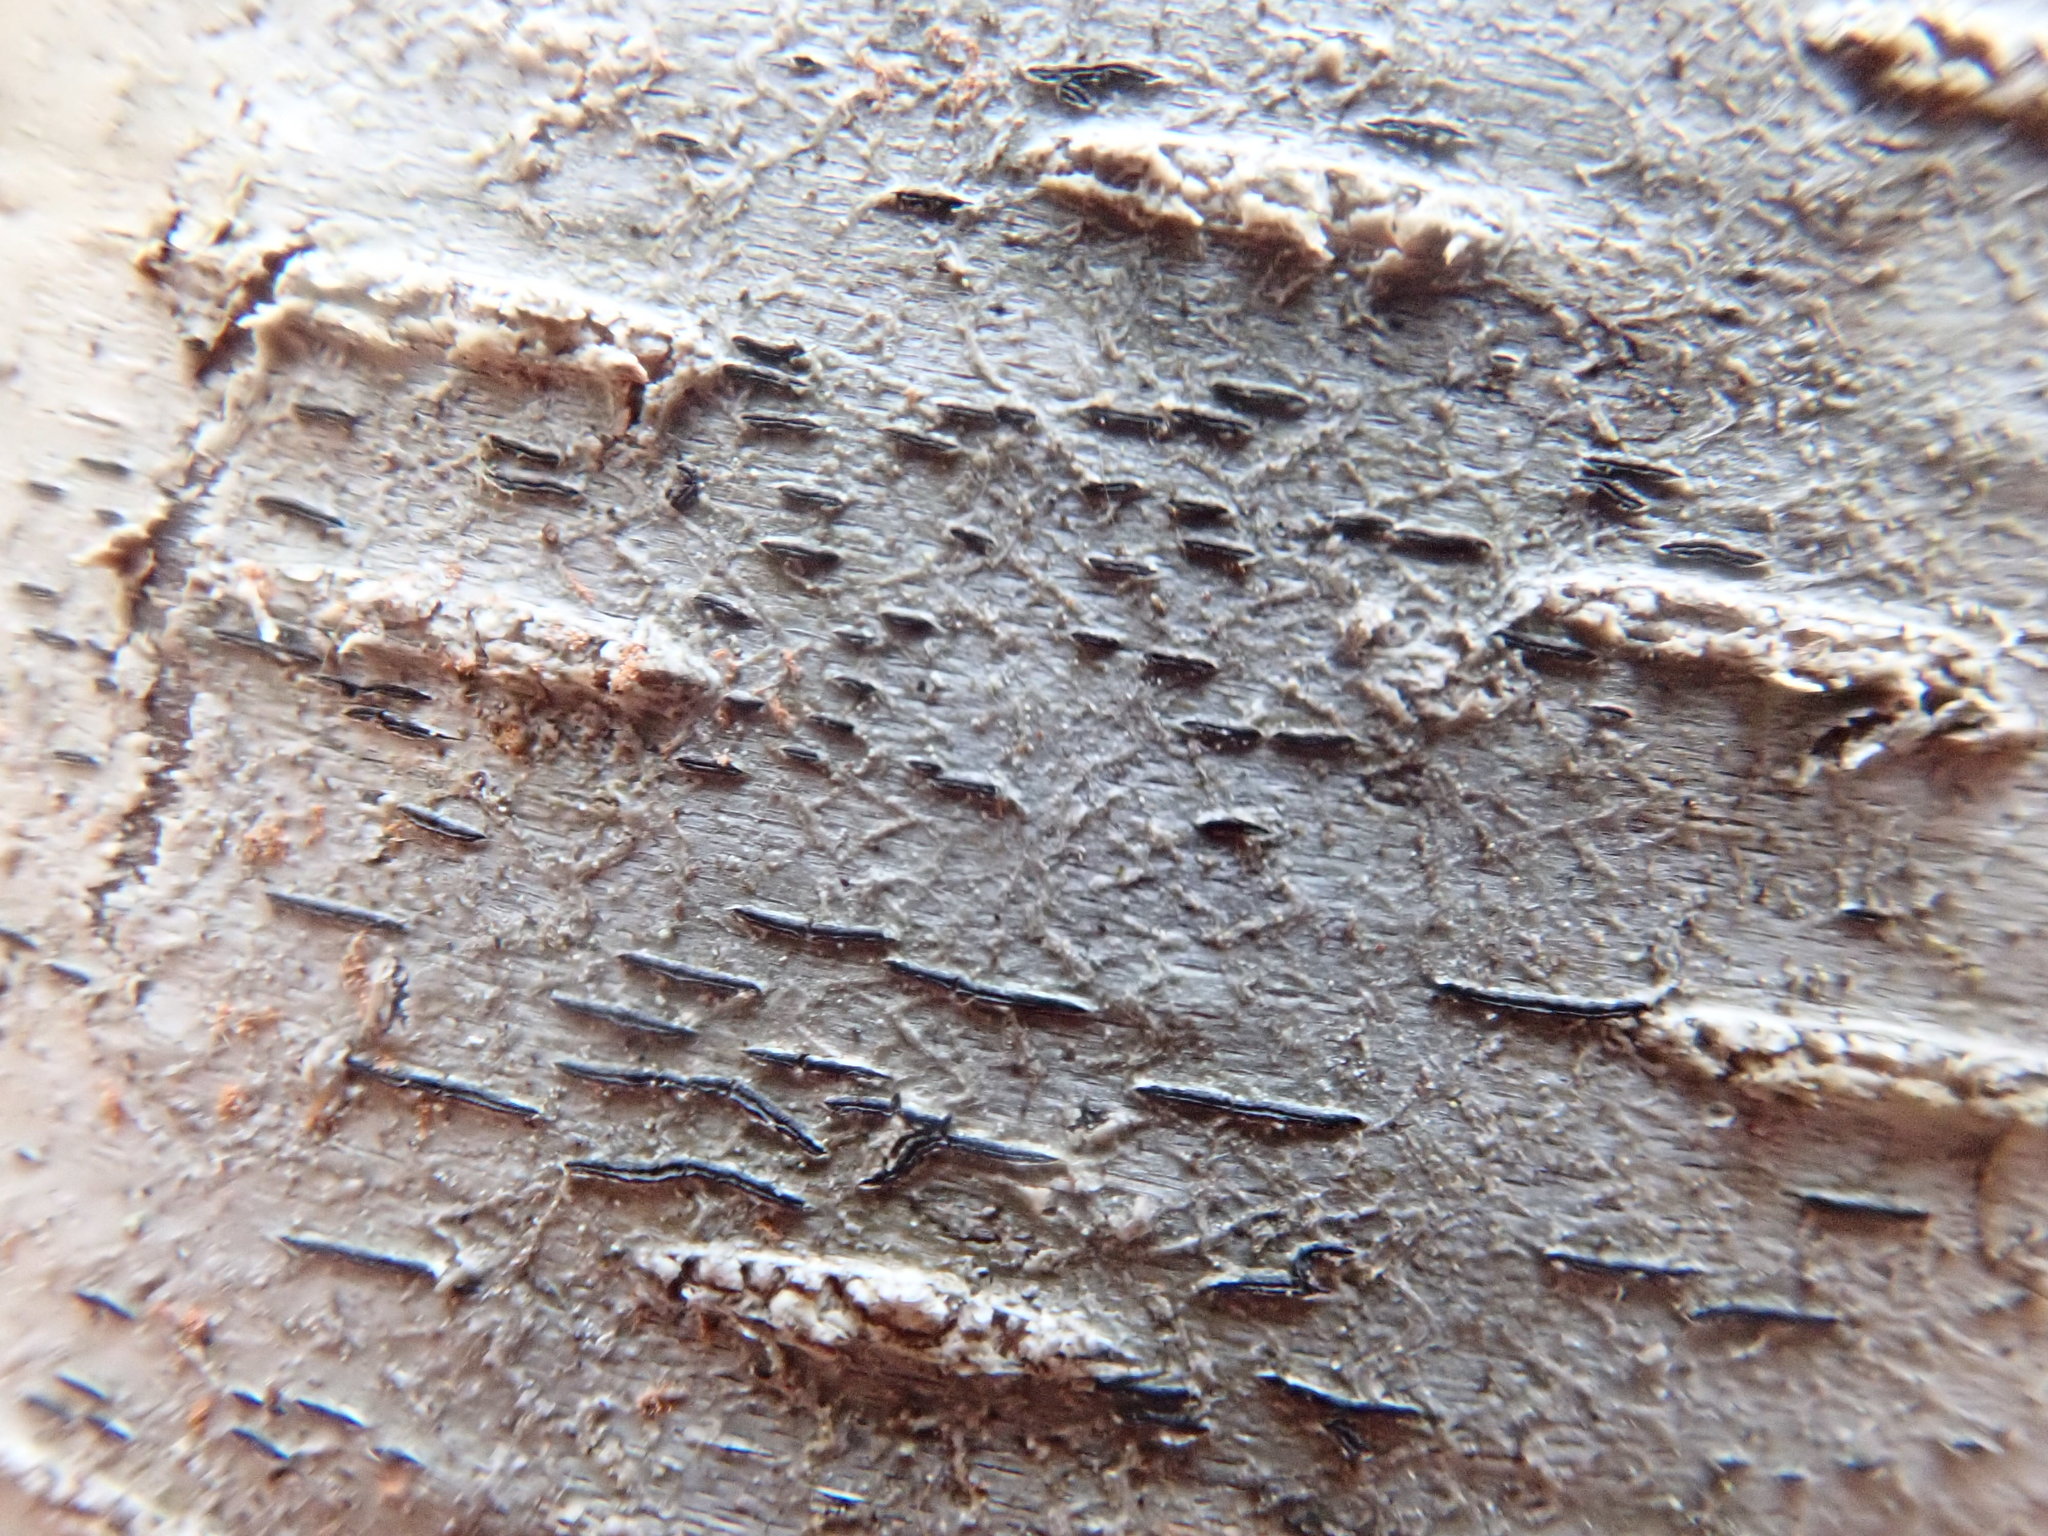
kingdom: Fungi
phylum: Ascomycota
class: Lecanoromycetes
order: Ostropales
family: Graphidaceae
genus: Graphis
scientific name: Graphis scripta
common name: Script lichen
